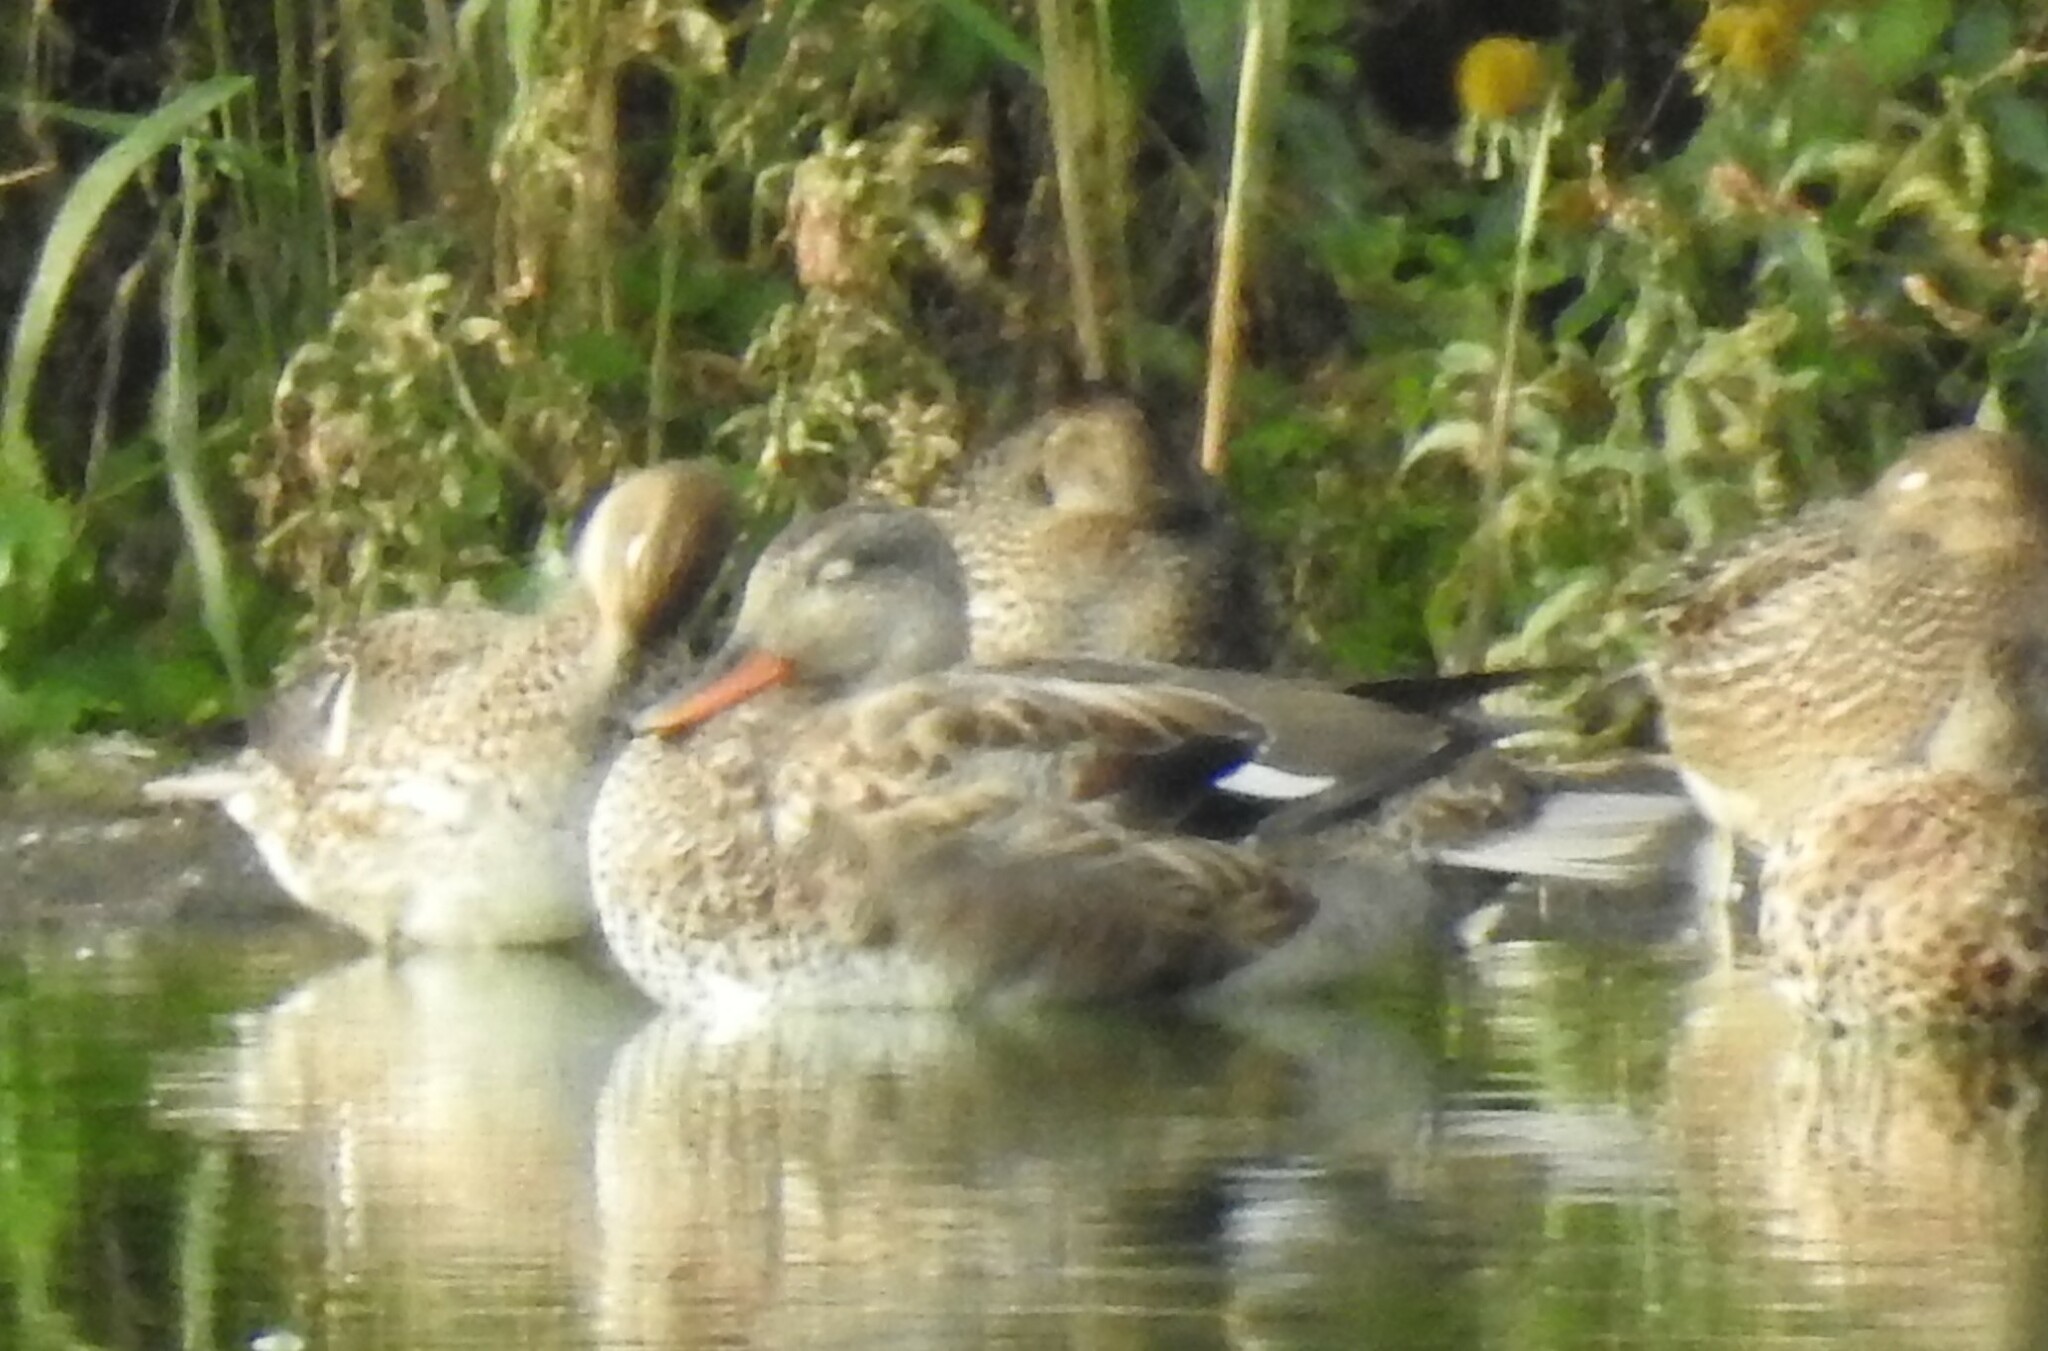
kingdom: Animalia
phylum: Chordata
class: Aves
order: Anseriformes
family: Anatidae
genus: Mareca
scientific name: Mareca strepera
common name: Gadwall
